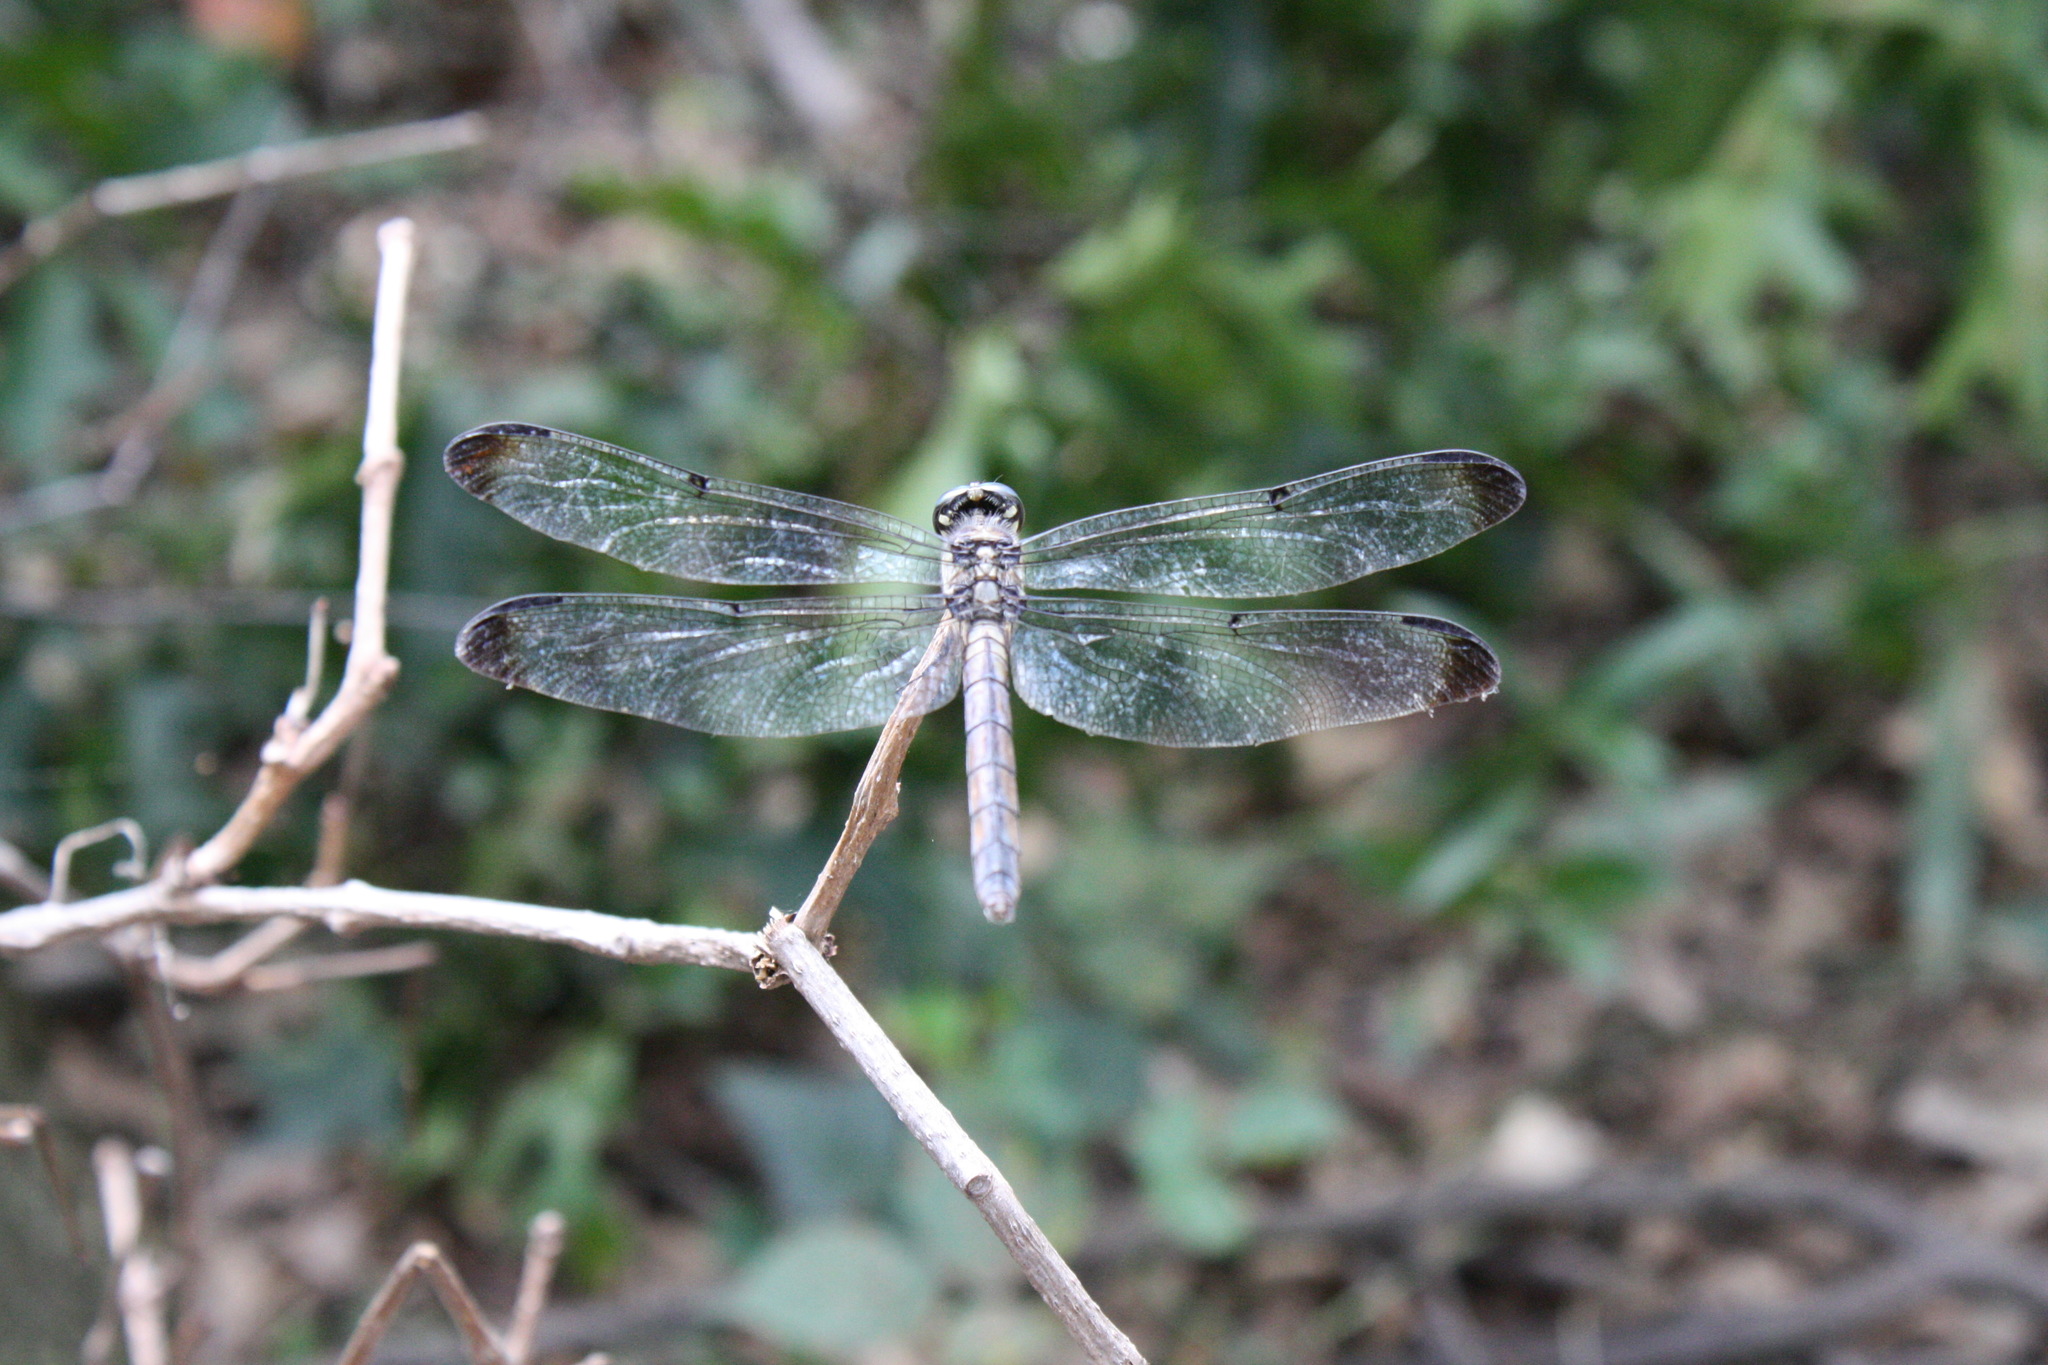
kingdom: Animalia
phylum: Arthropoda
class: Insecta
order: Odonata
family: Libellulidae
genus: Libellula
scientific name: Libellula vibrans
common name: Great blue skimmer
